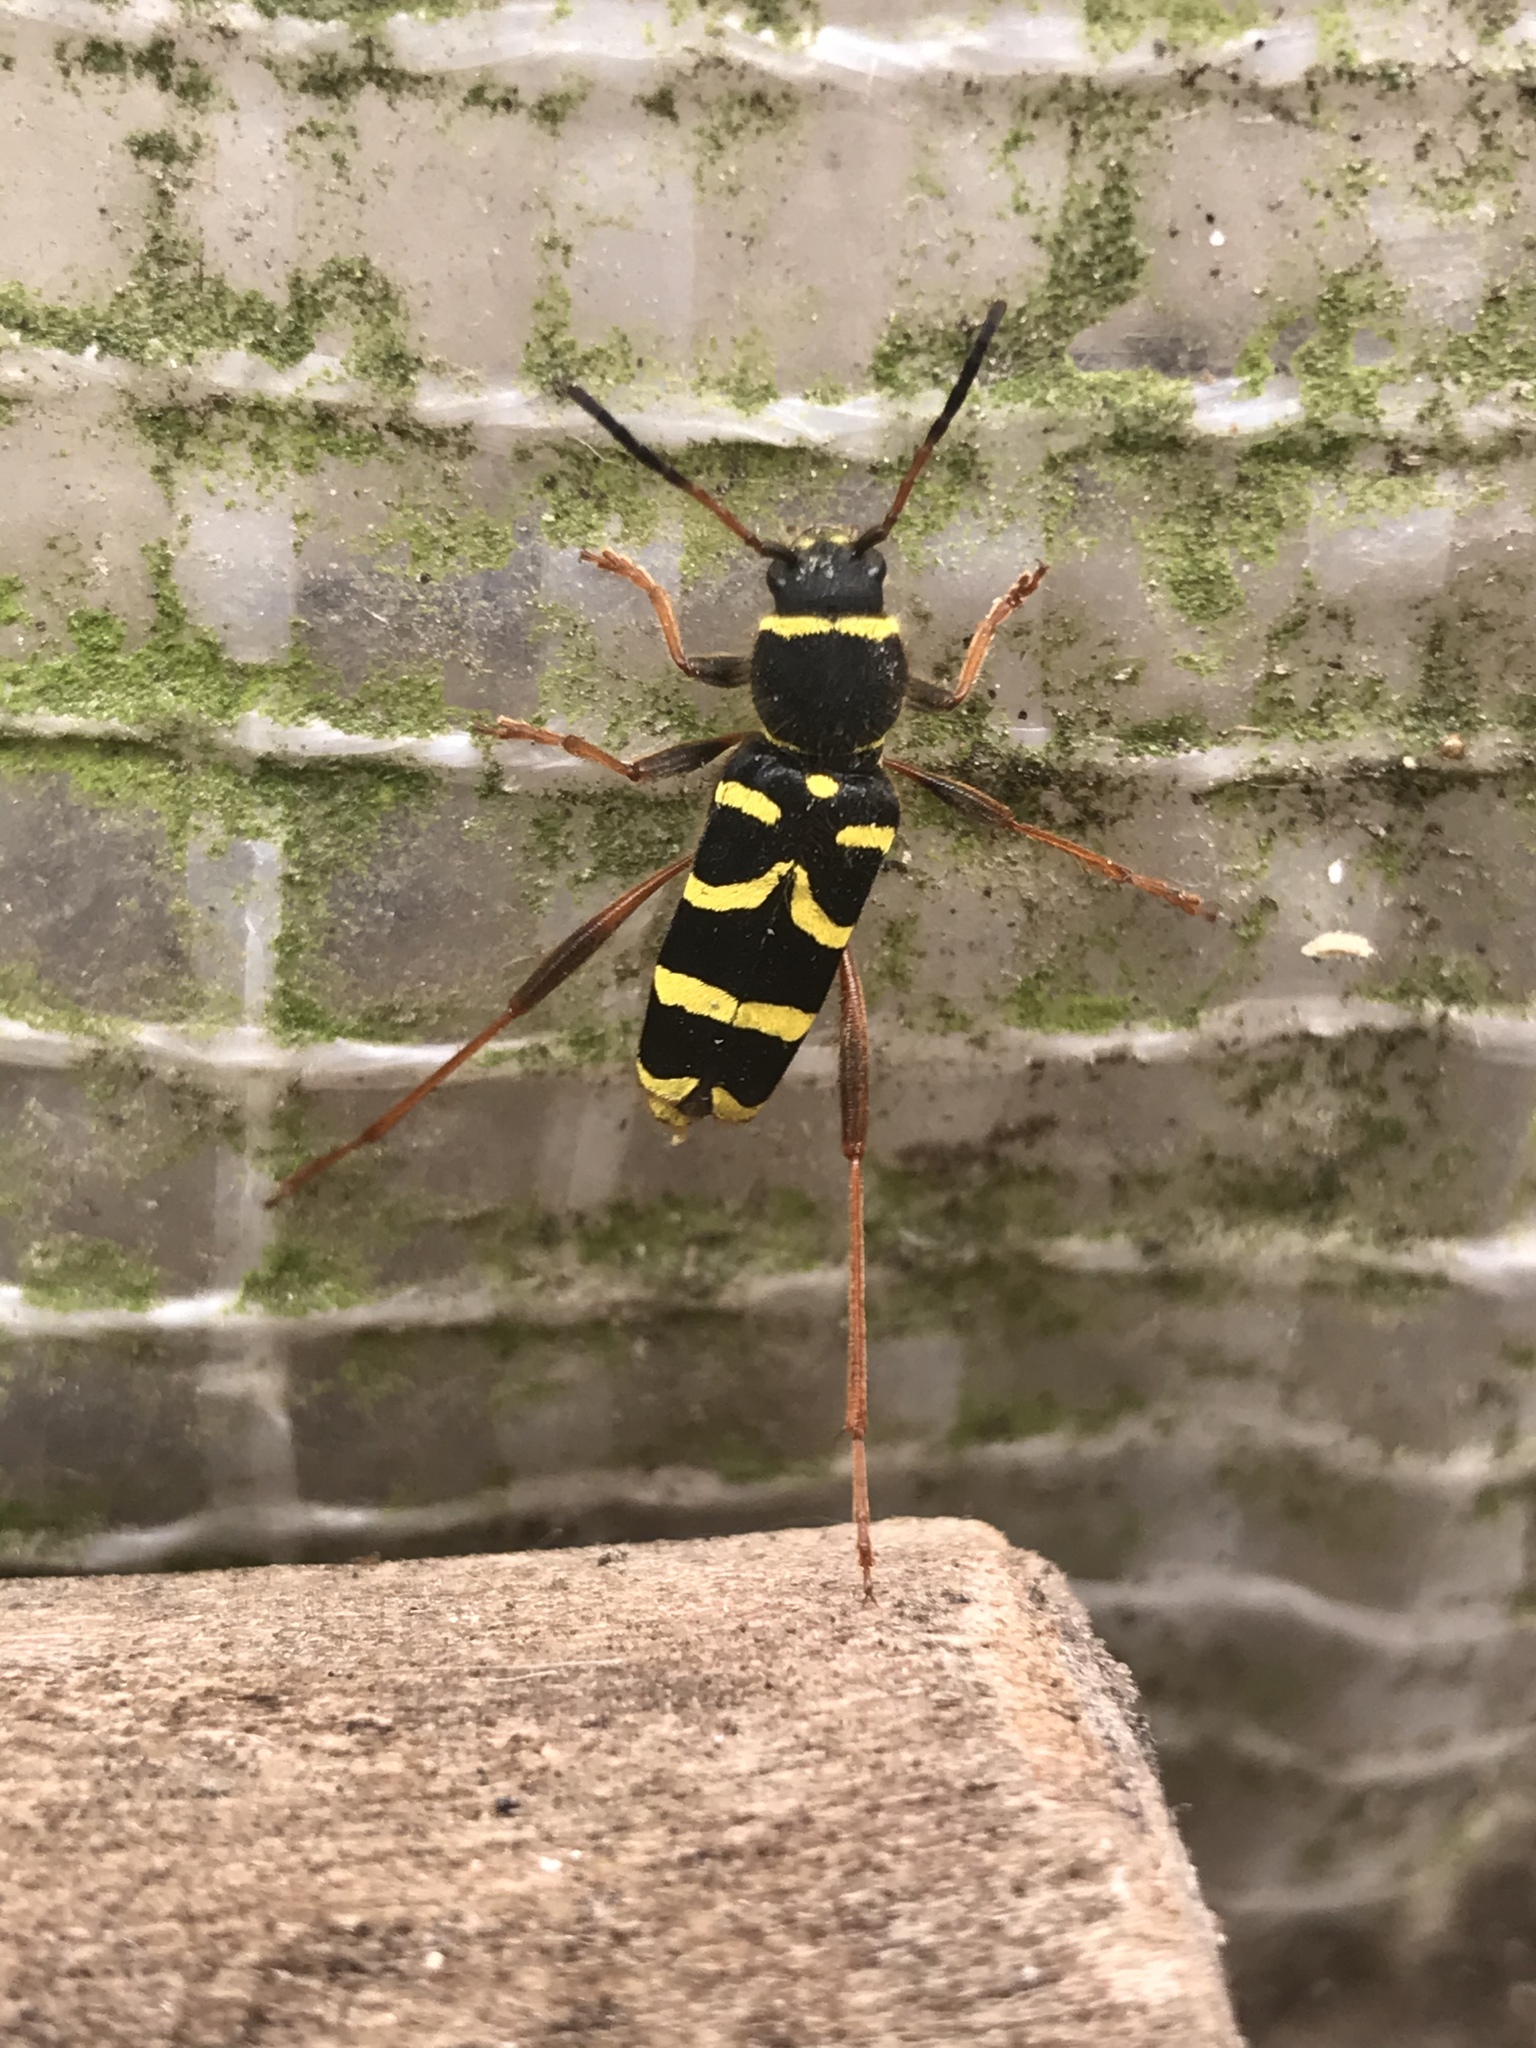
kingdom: Animalia
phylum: Arthropoda
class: Insecta
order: Coleoptera
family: Cerambycidae
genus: Clytus
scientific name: Clytus arietis
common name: Wasp beetle
